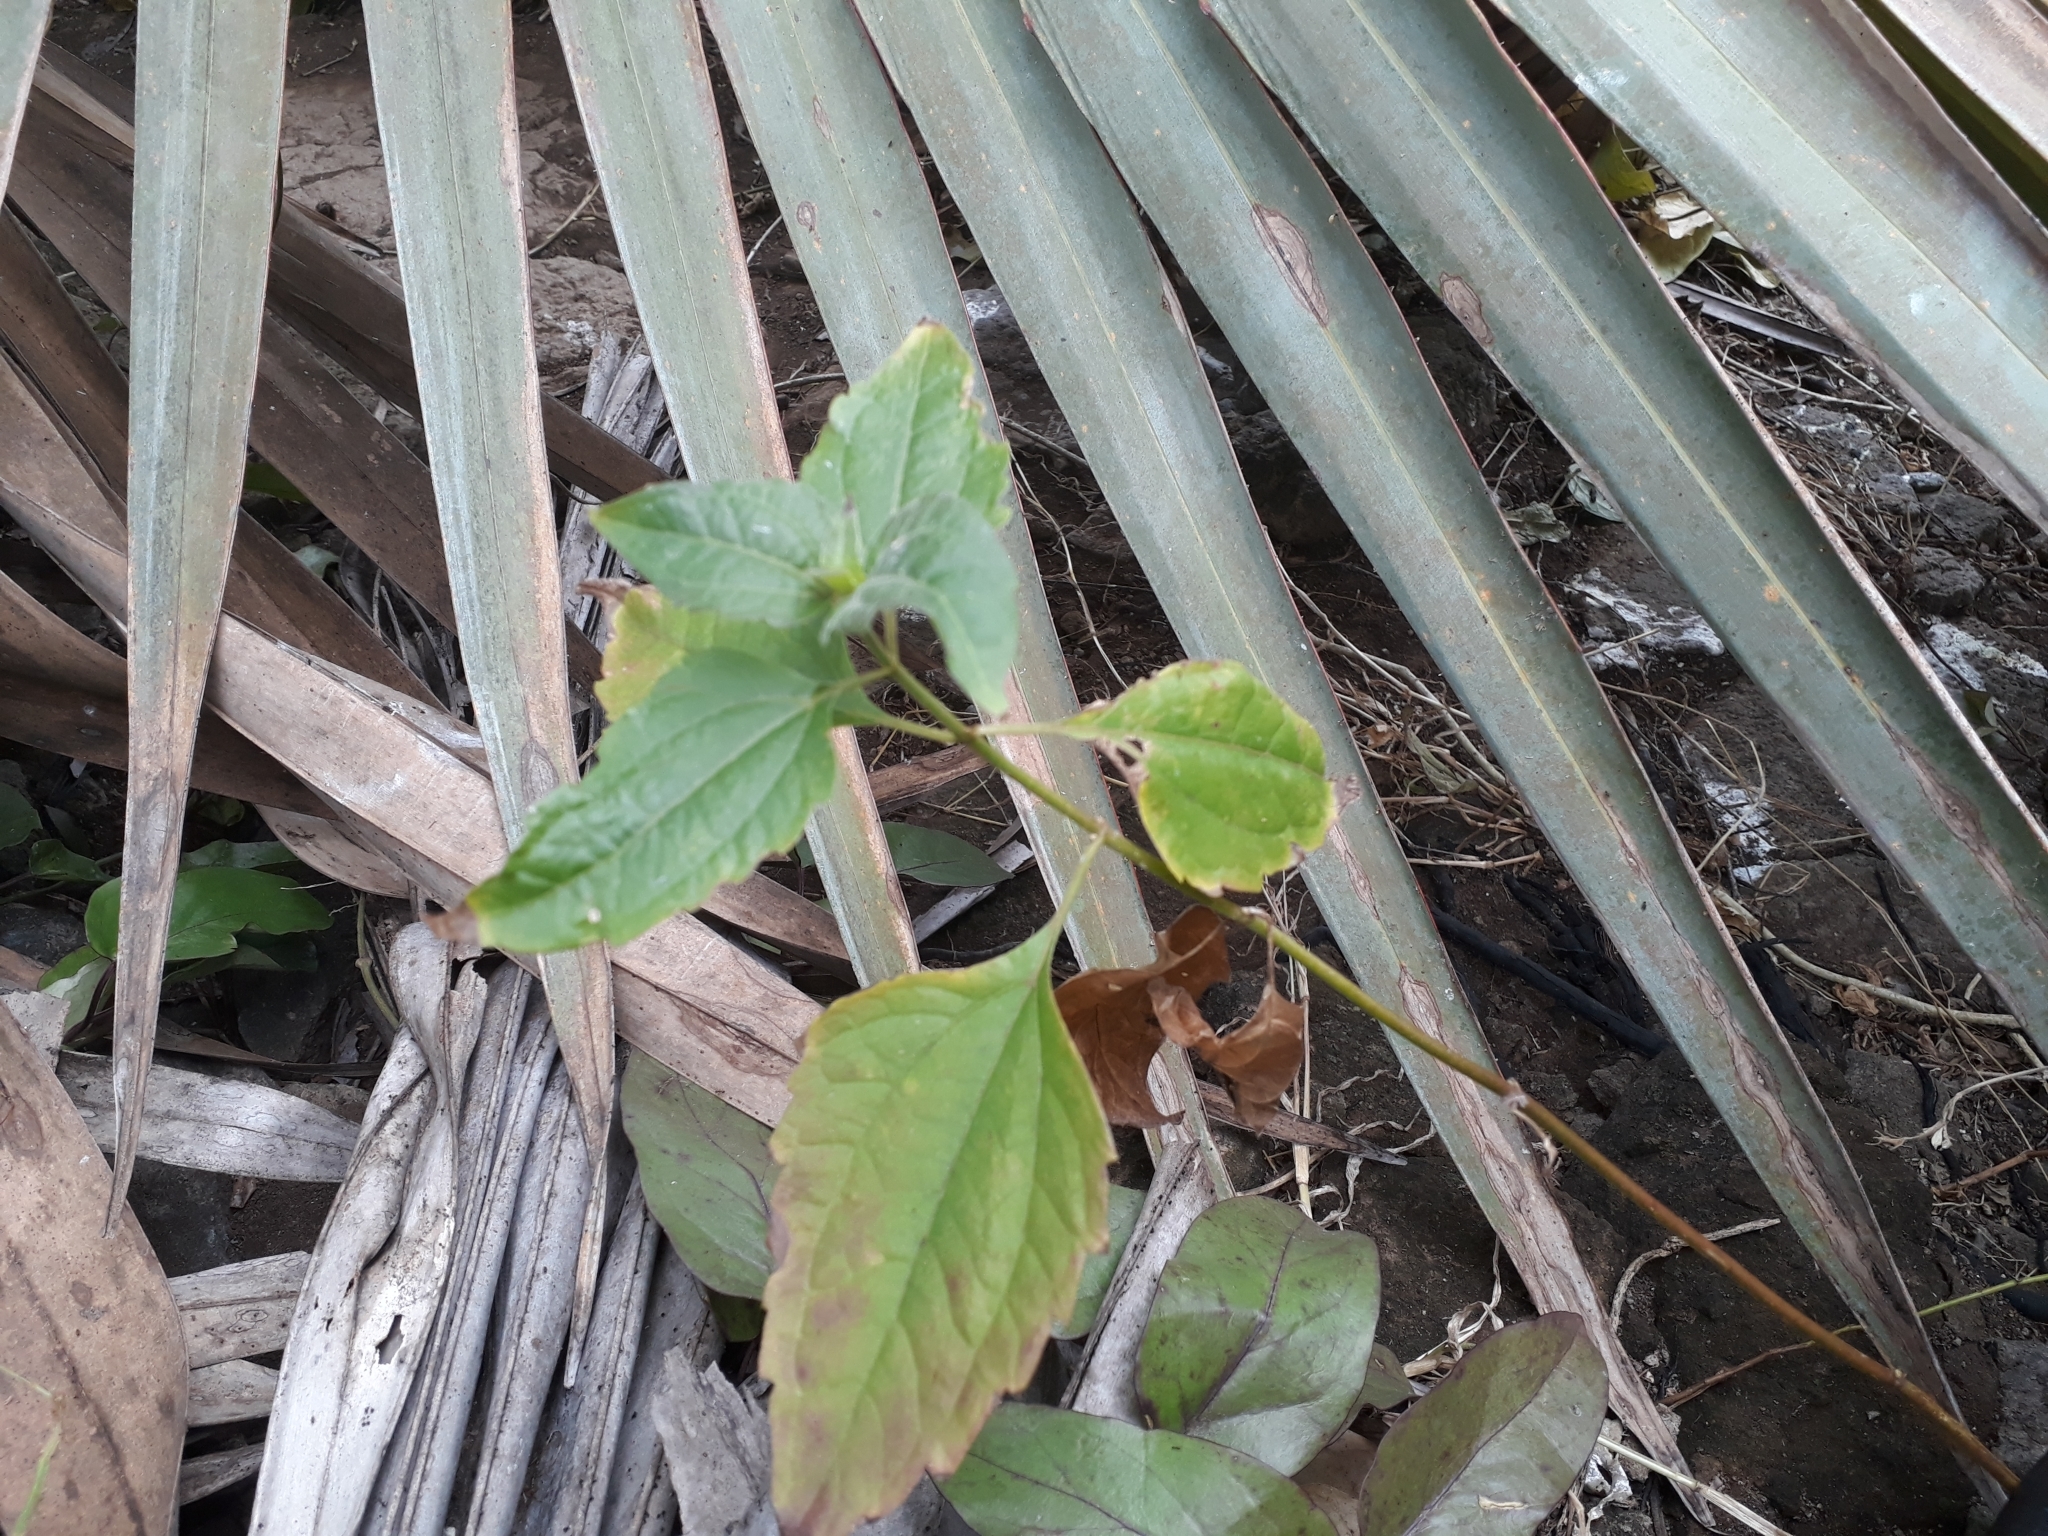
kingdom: Plantae
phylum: Tracheophyta
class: Magnoliopsida
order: Asterales
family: Asteraceae
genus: Chromolaena
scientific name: Chromolaena odorata
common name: Siamweed
